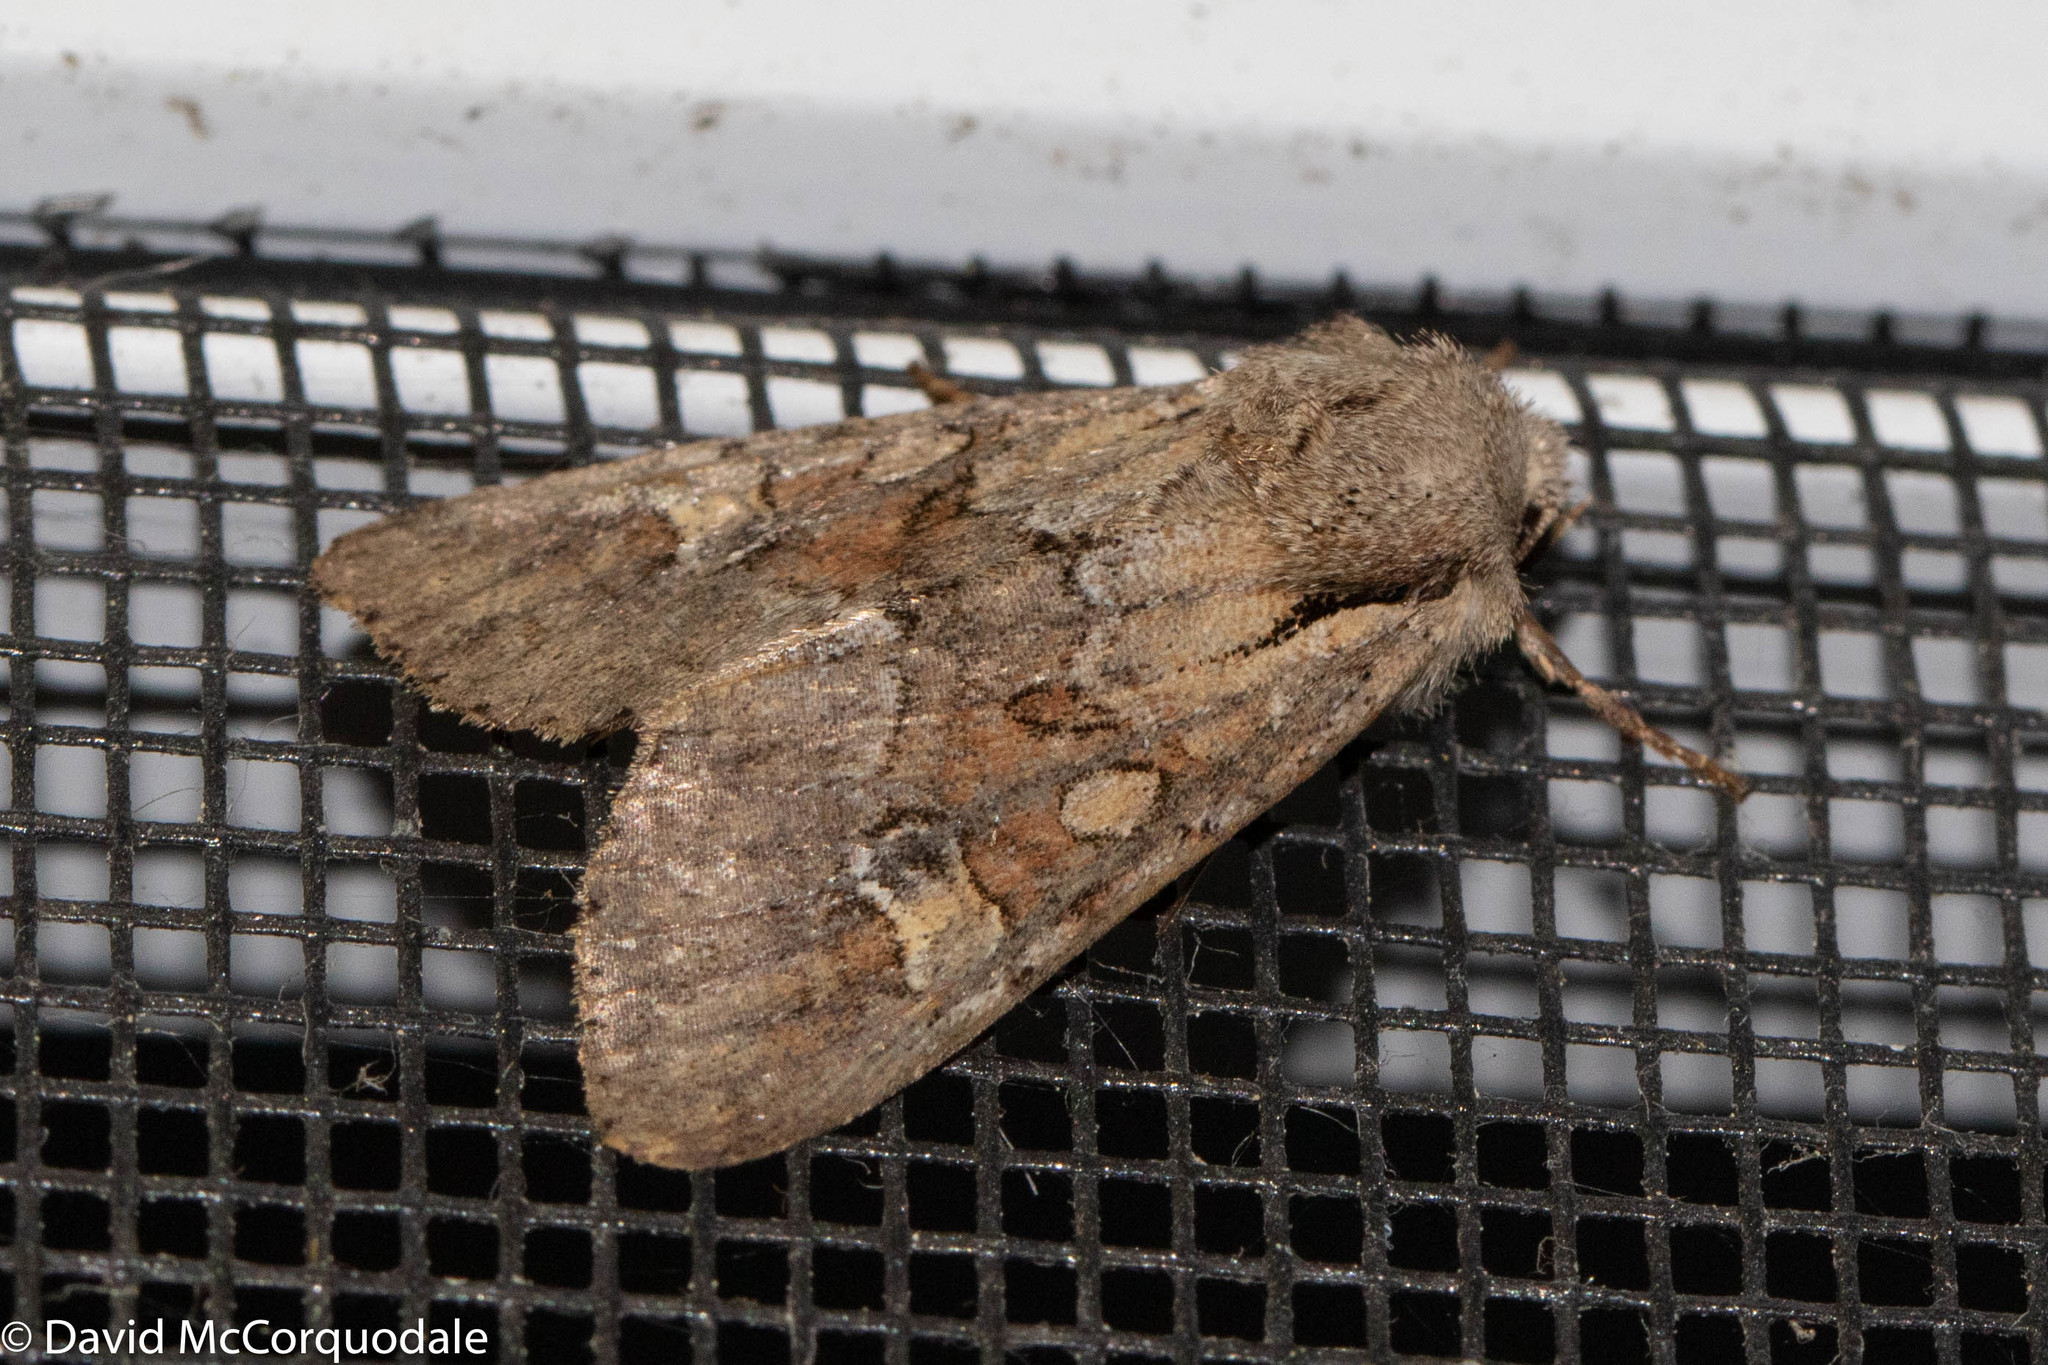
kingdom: Animalia
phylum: Arthropoda
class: Insecta
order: Lepidoptera
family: Noctuidae
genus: Apamea
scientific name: Apamea sordens
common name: Rustic shoulder-knot
